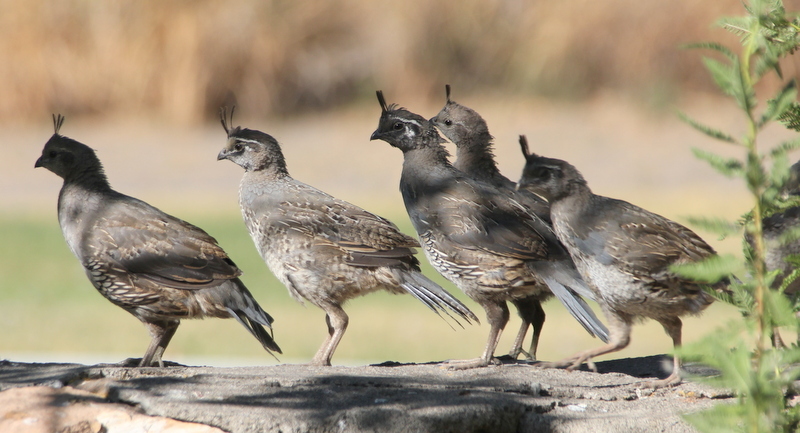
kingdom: Animalia
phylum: Chordata
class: Aves
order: Galliformes
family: Odontophoridae
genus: Callipepla
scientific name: Callipepla californica
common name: California quail
